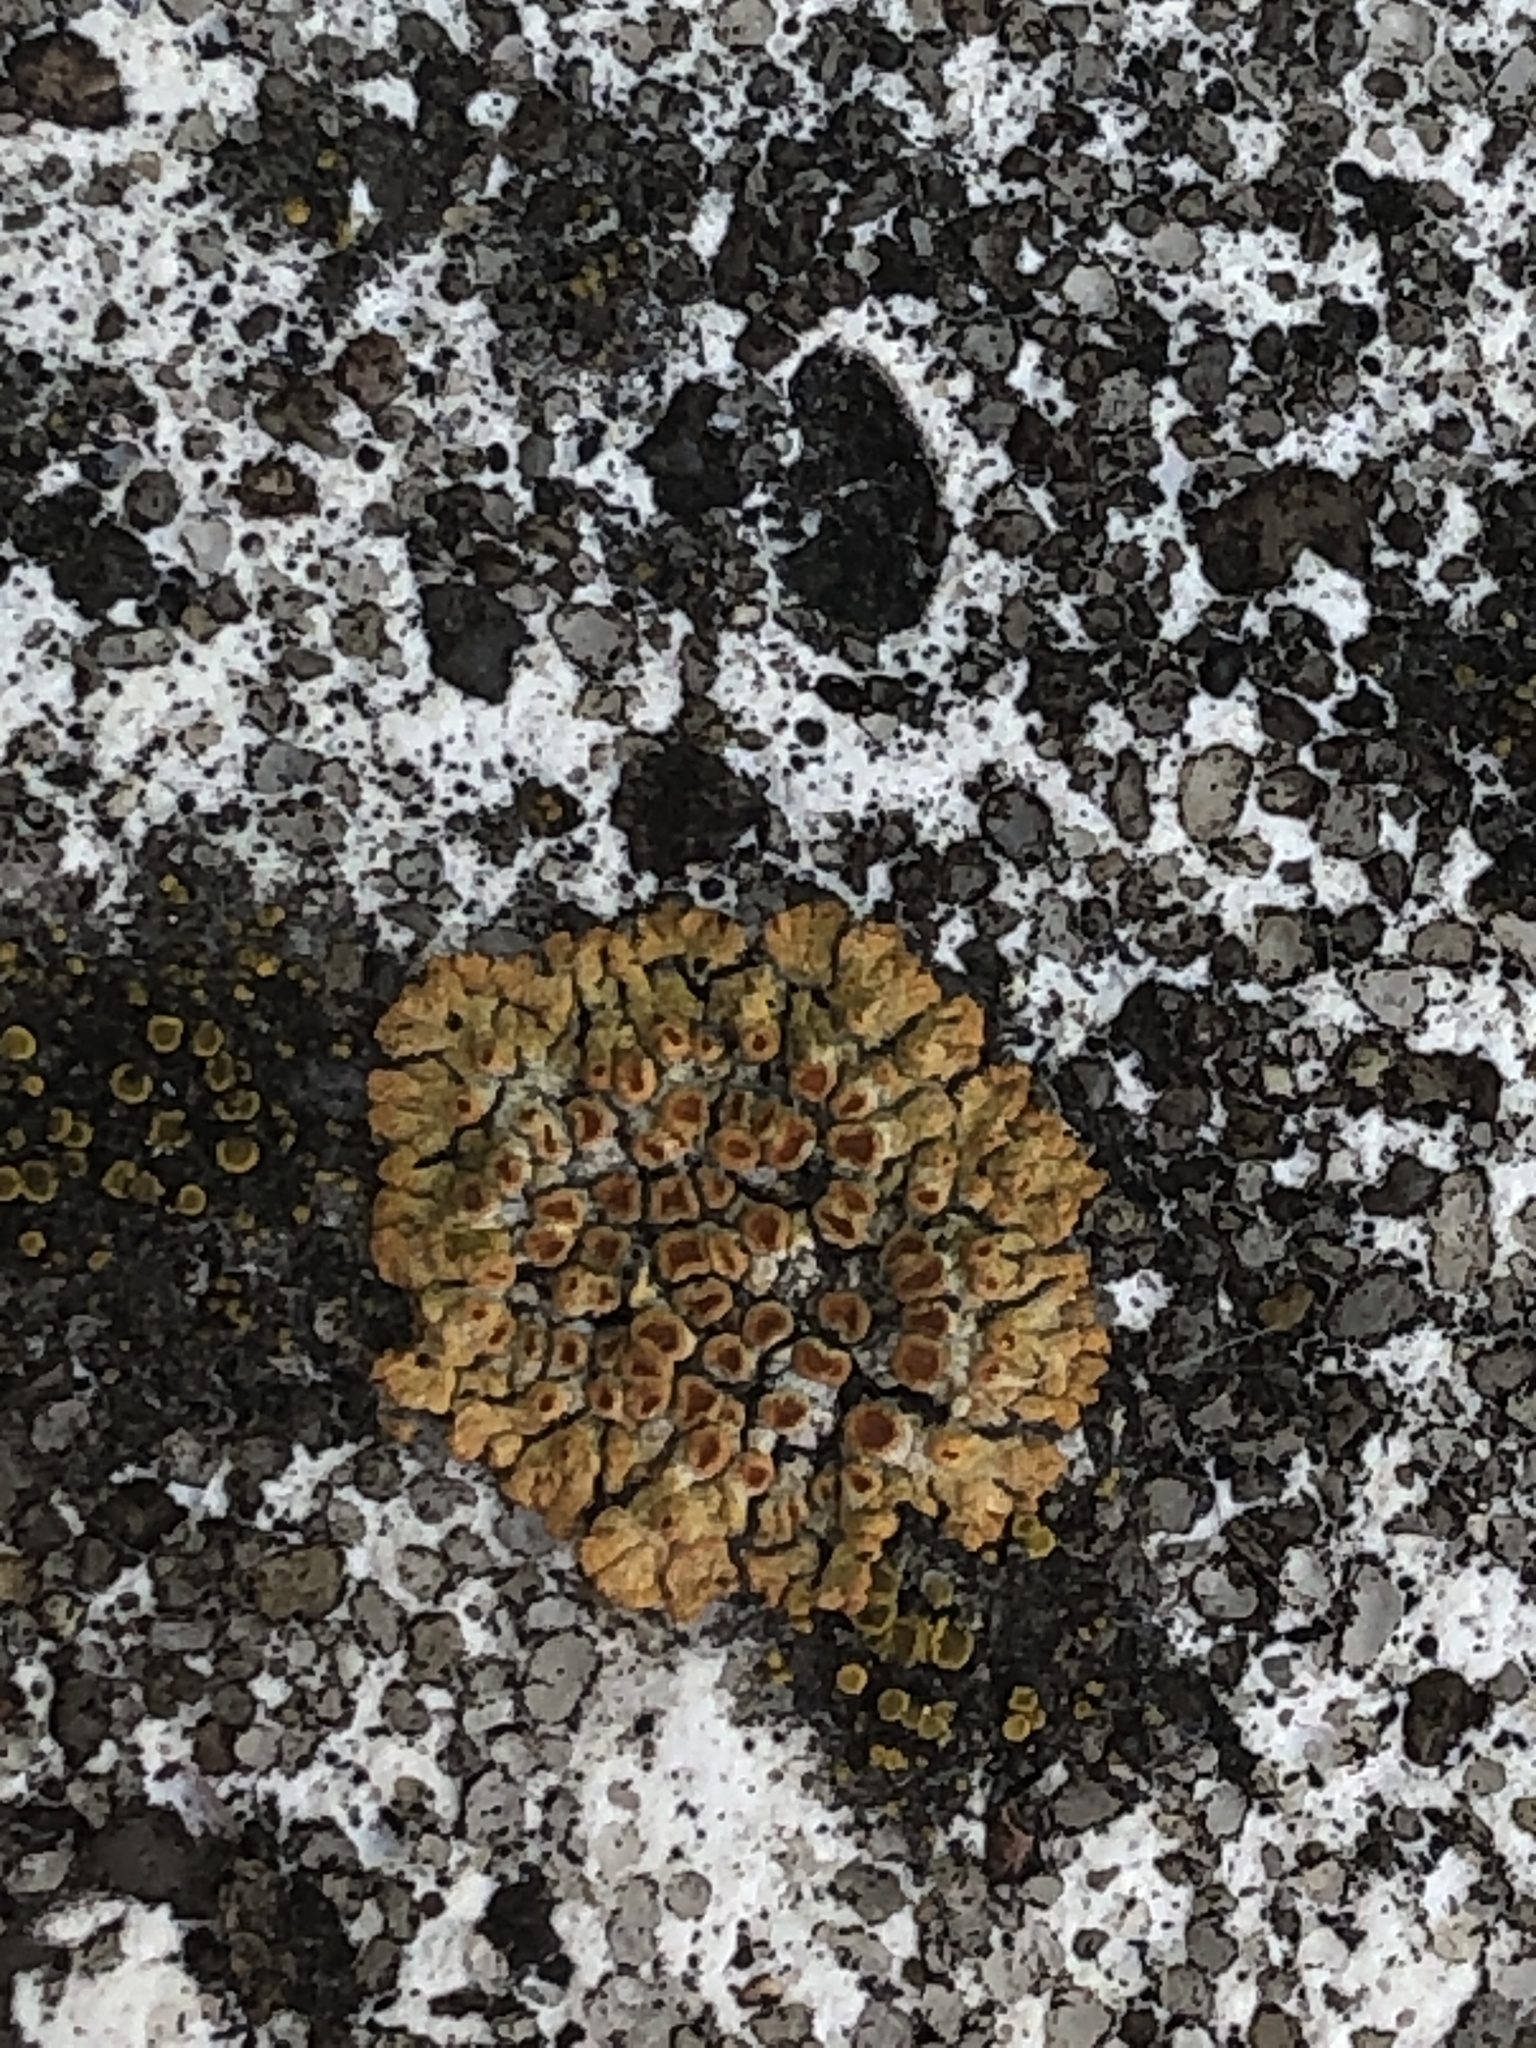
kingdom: Fungi
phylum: Ascomycota
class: Lecanoromycetes
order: Teloschistales
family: Teloschistaceae
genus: Calogaya
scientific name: Calogaya pusilla
